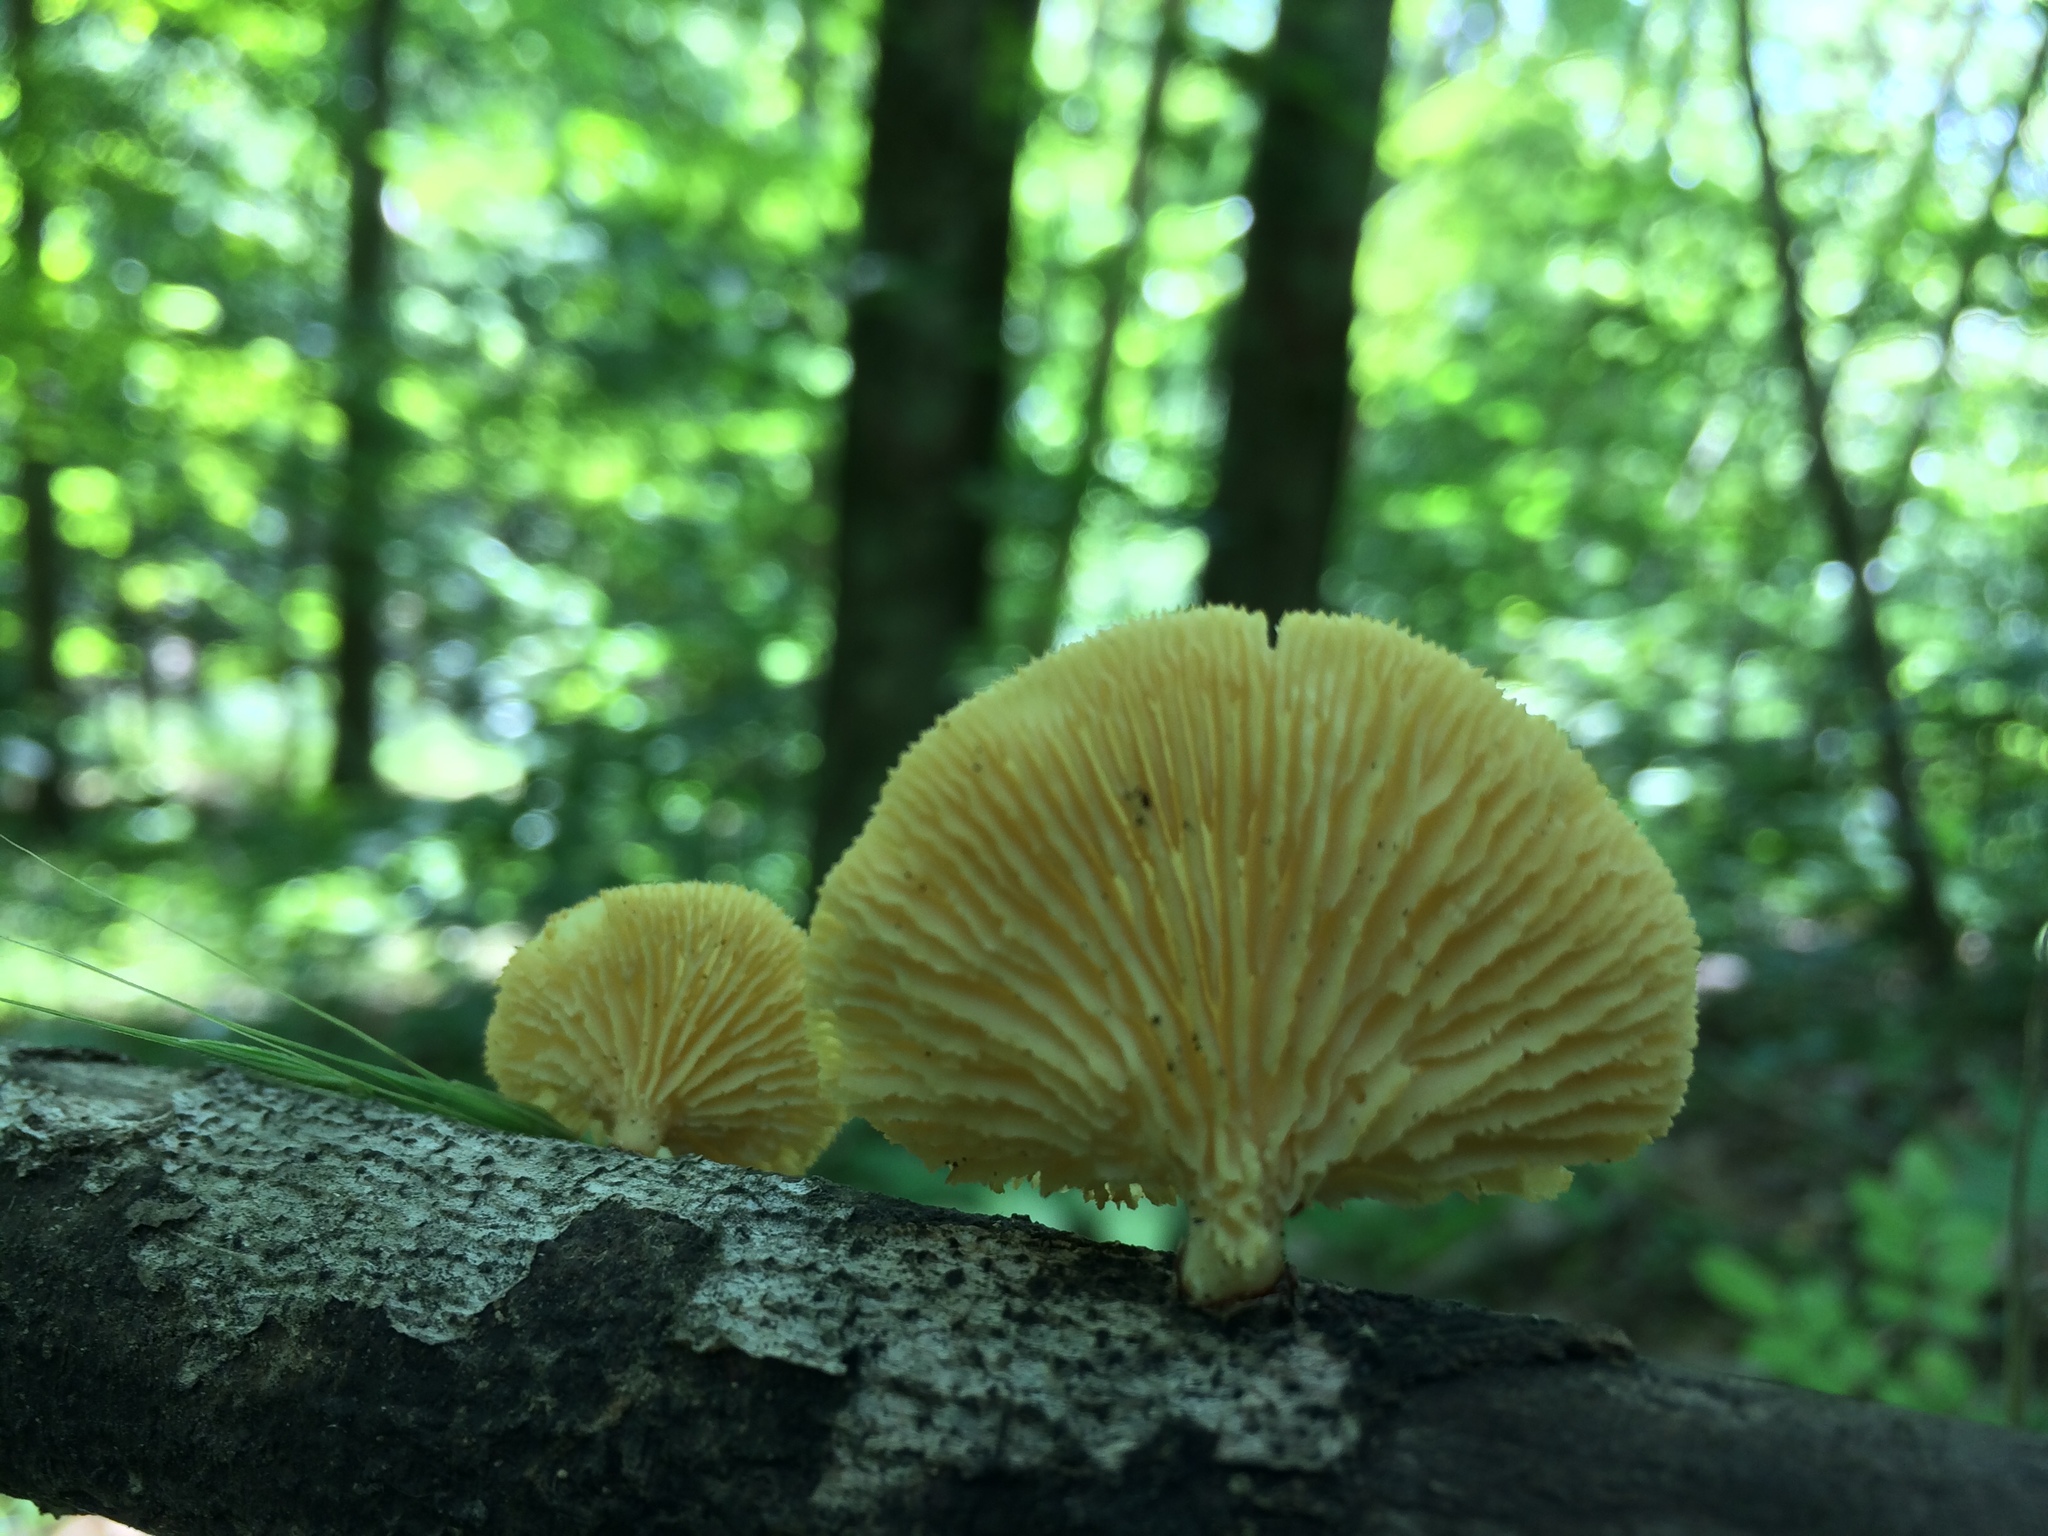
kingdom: Fungi
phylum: Basidiomycota
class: Agaricomycetes
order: Polyporales
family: Polyporaceae
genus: Neofavolus
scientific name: Neofavolus suavissimus
